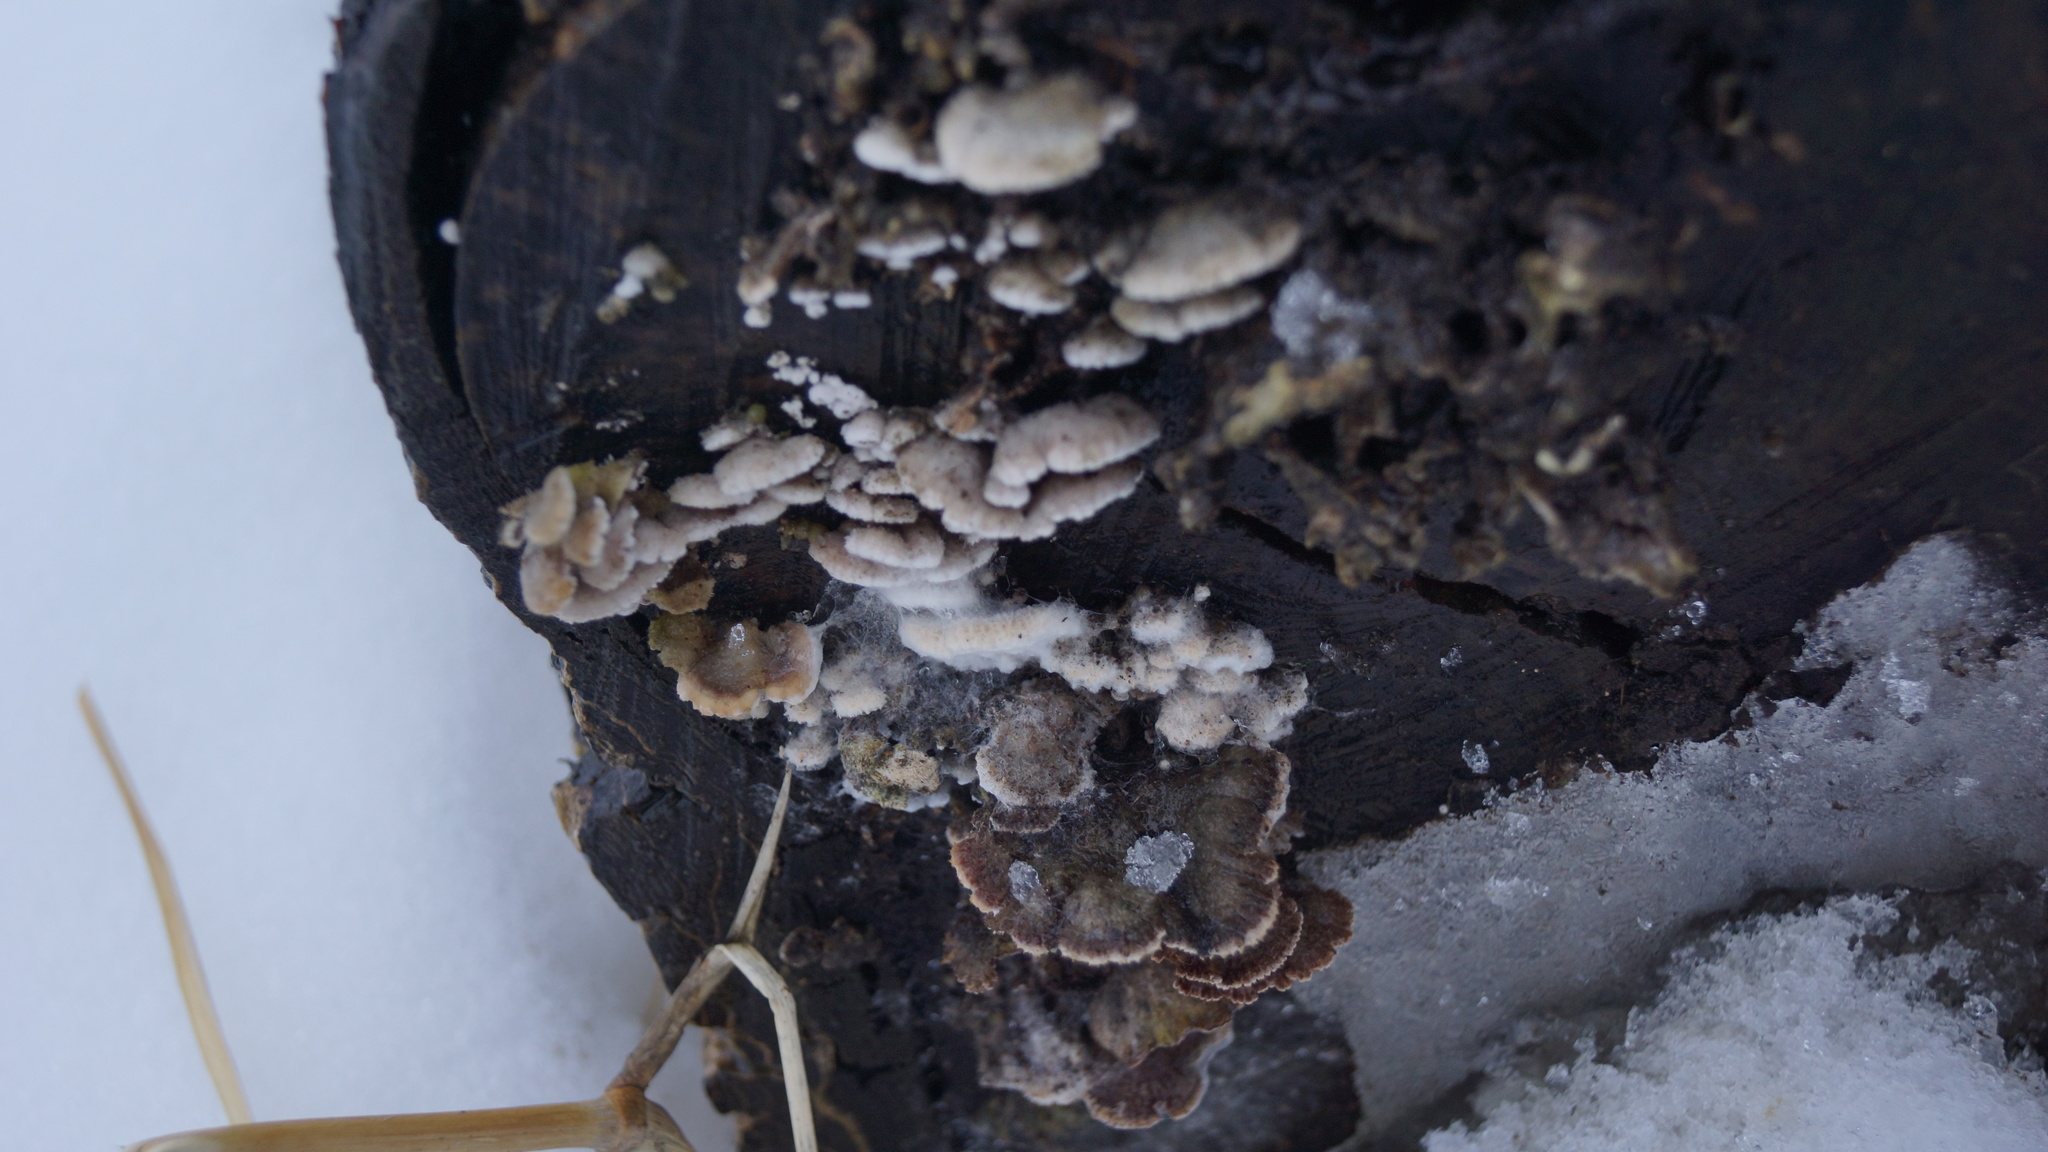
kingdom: Fungi
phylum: Basidiomycota
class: Agaricomycetes
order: Agaricales
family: Schizophyllaceae
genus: Schizophyllum
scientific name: Schizophyllum commune
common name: Common porecrust
